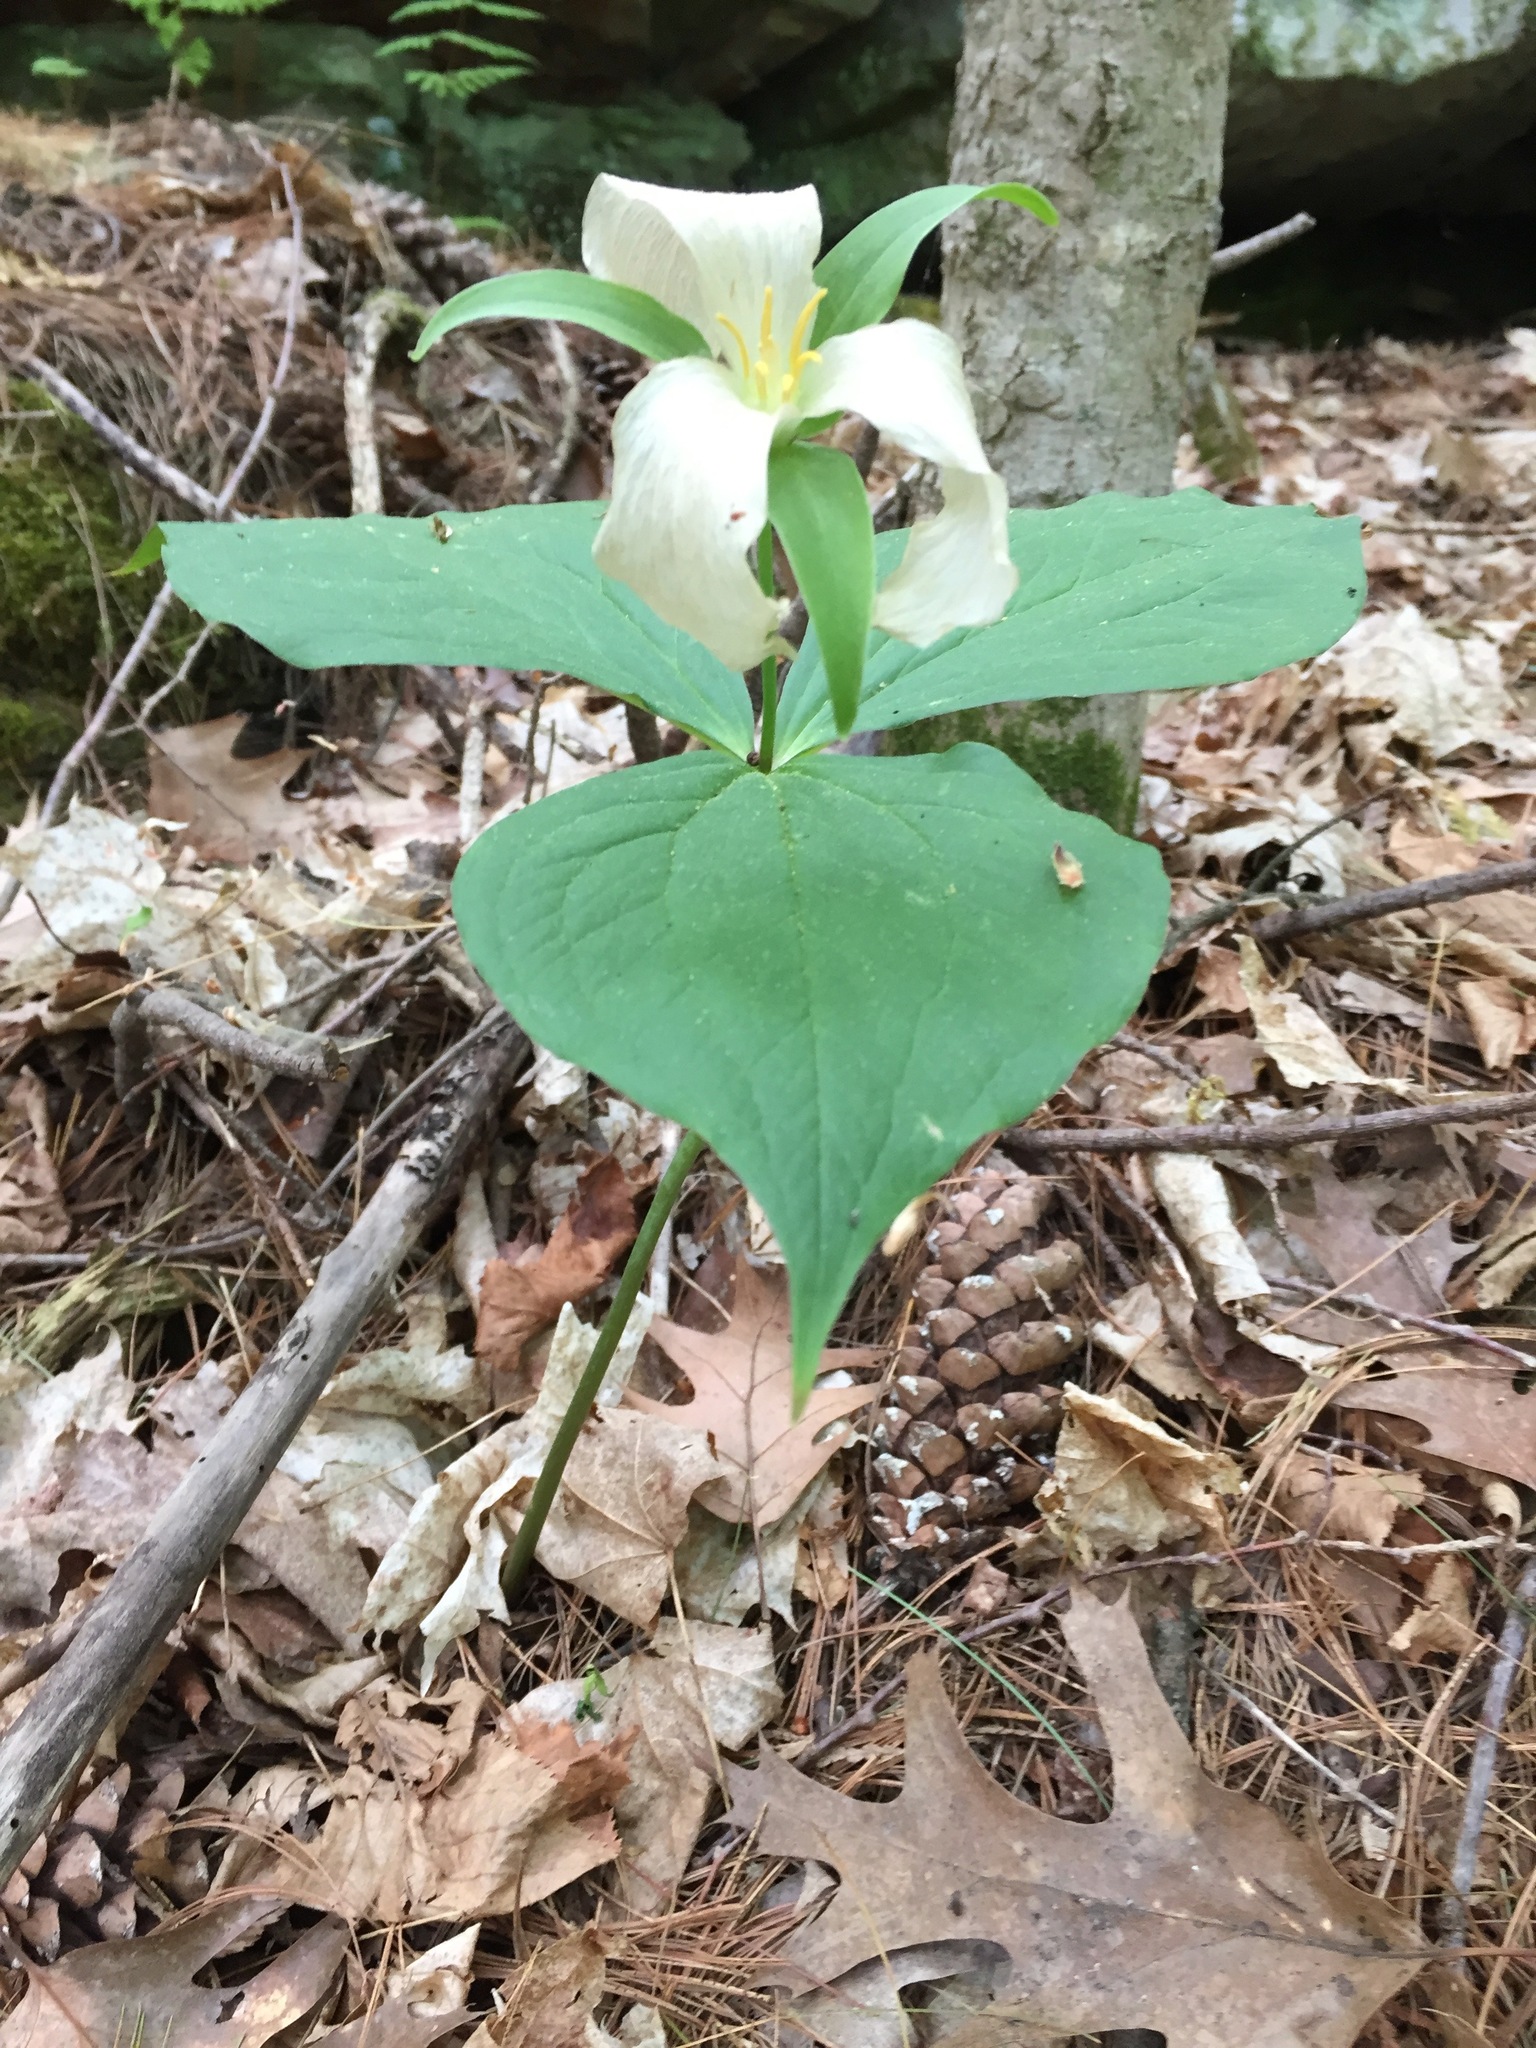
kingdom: Plantae
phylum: Tracheophyta
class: Liliopsida
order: Liliales
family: Melanthiaceae
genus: Trillium
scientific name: Trillium grandiflorum
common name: Great white trillium
